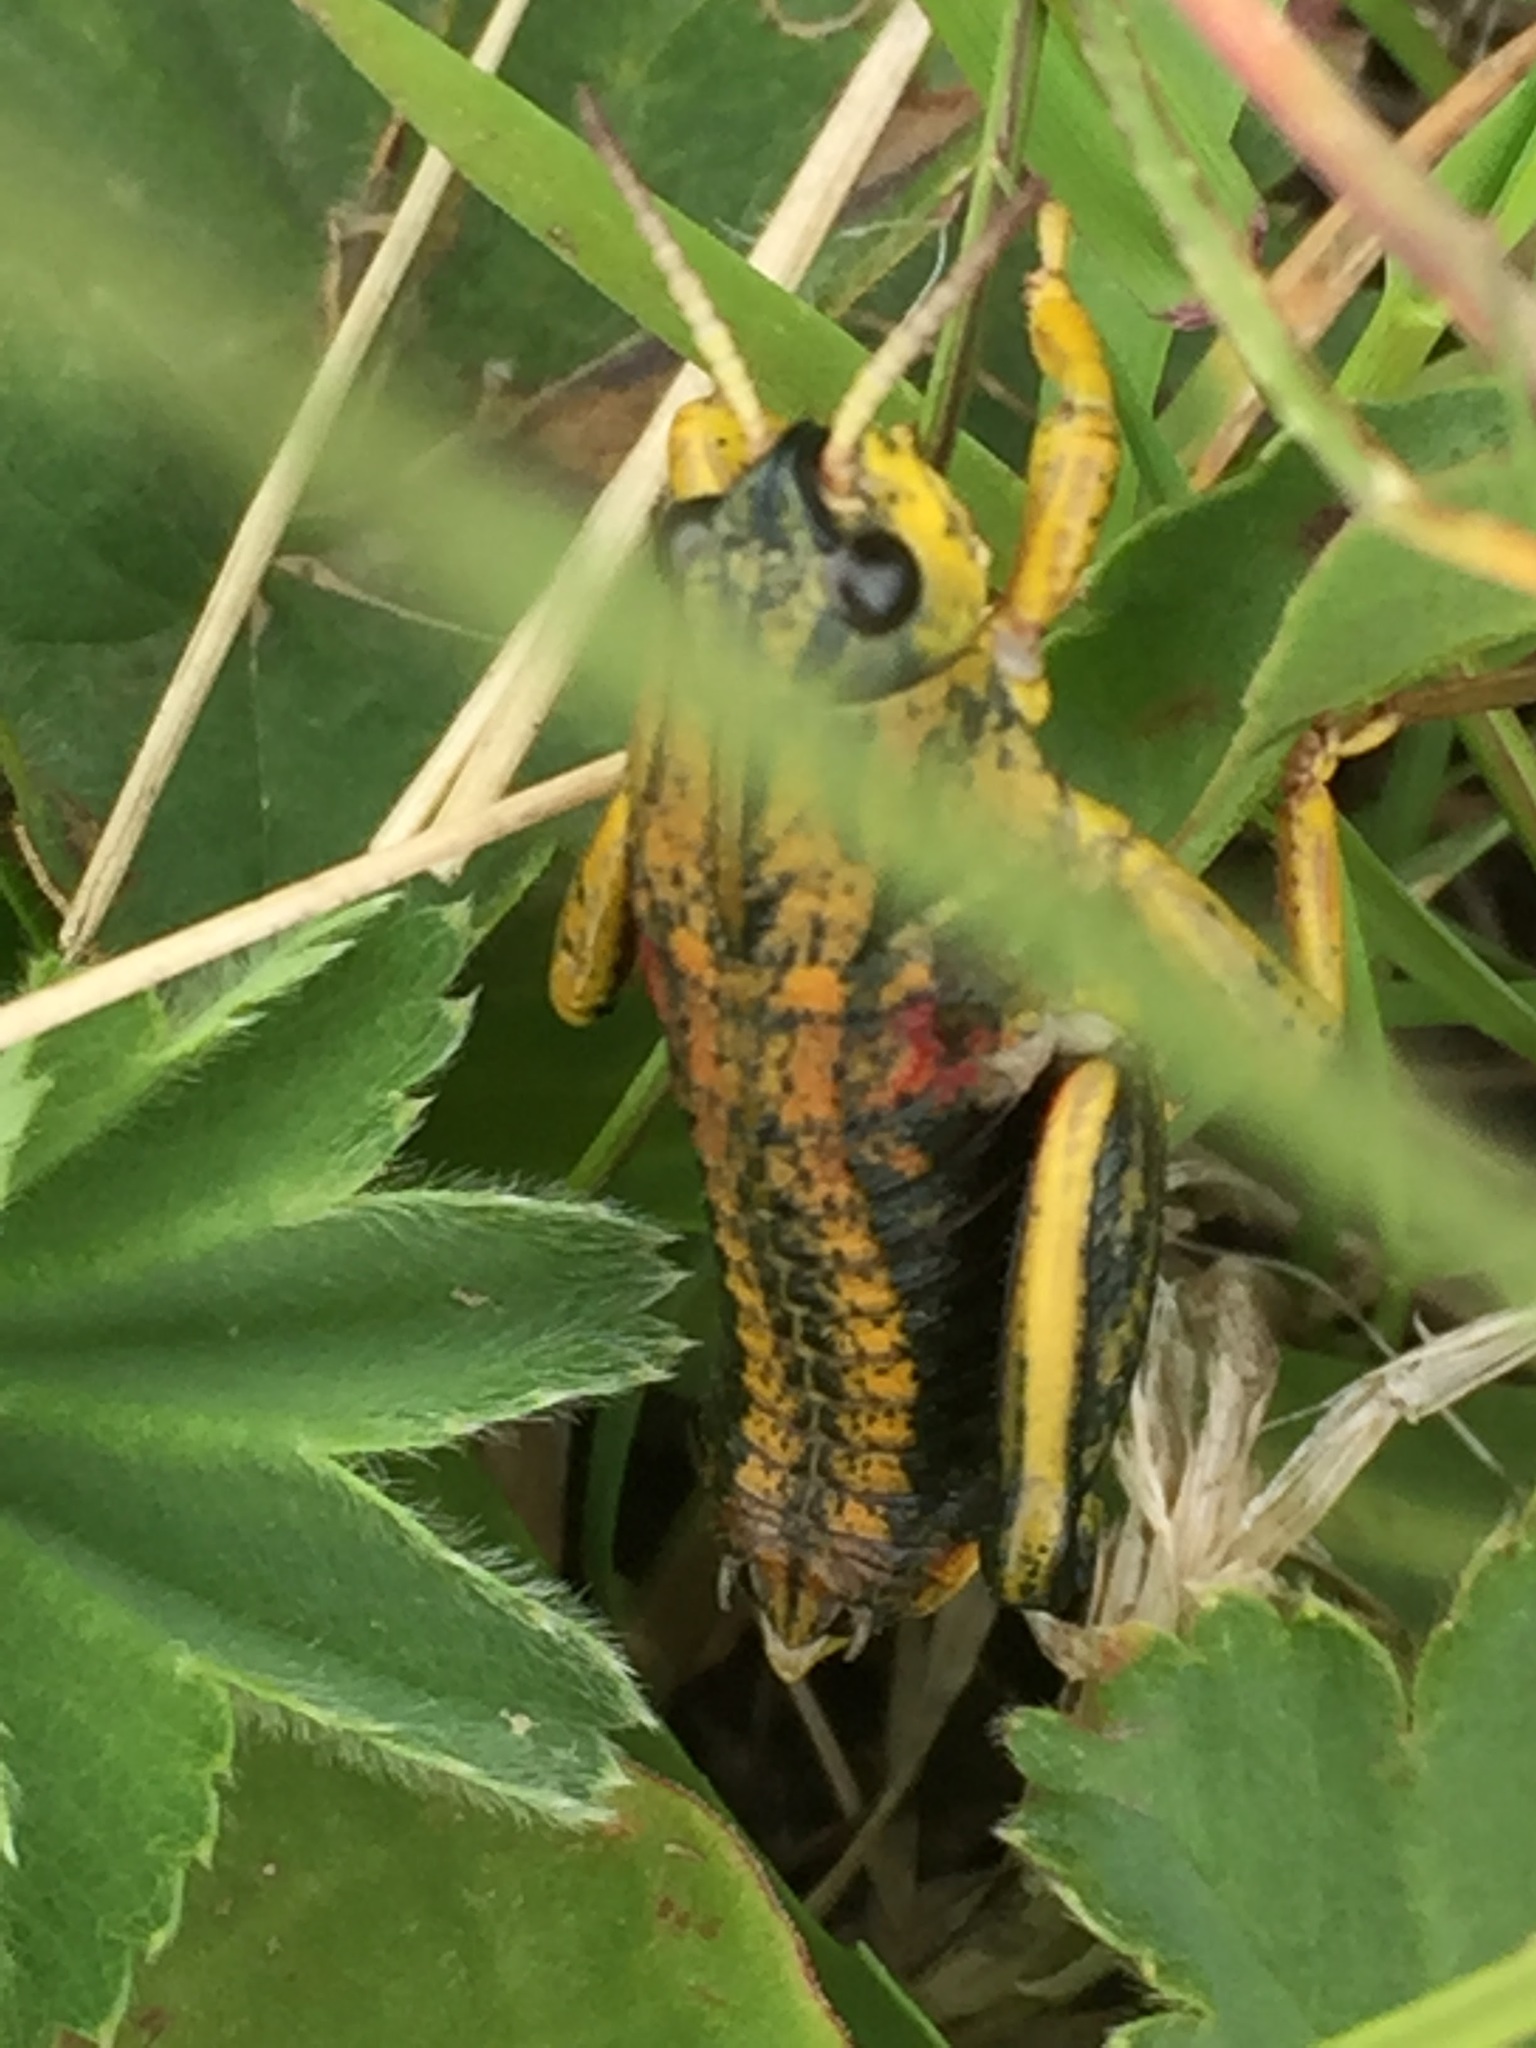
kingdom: Animalia
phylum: Arthropoda
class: Insecta
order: Orthoptera
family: Pamphagidae
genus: Nocaracris
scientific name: Nocaracris cyanipes
